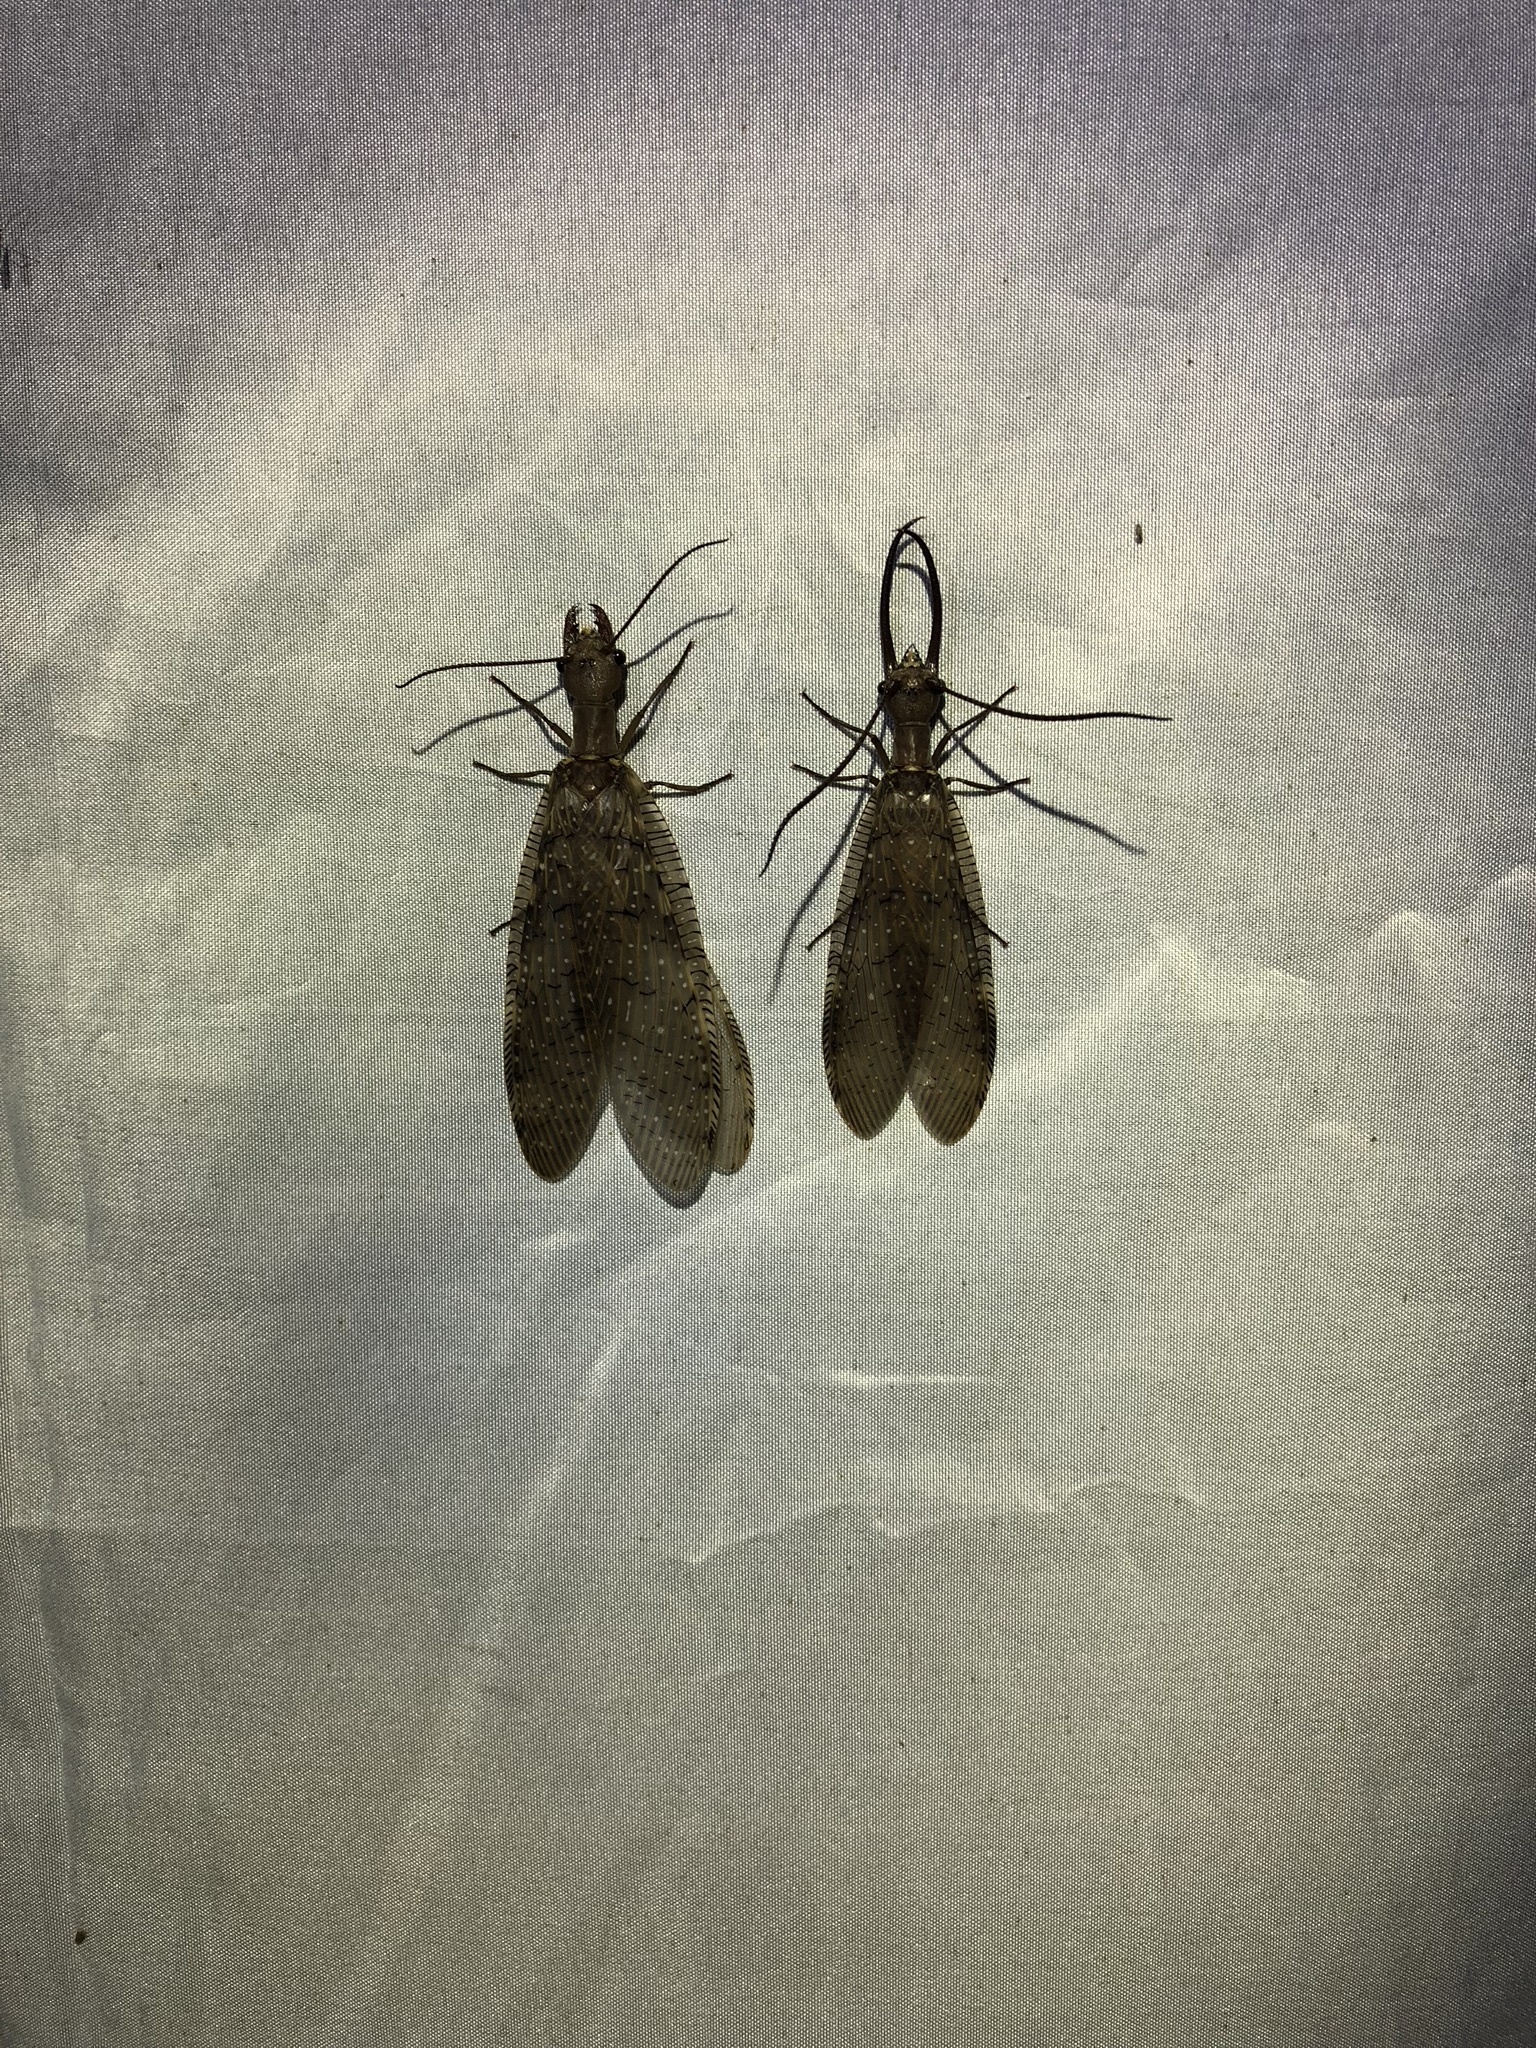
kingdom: Animalia
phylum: Arthropoda
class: Insecta
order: Megaloptera
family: Corydalidae
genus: Corydalus
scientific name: Corydalus luteus
